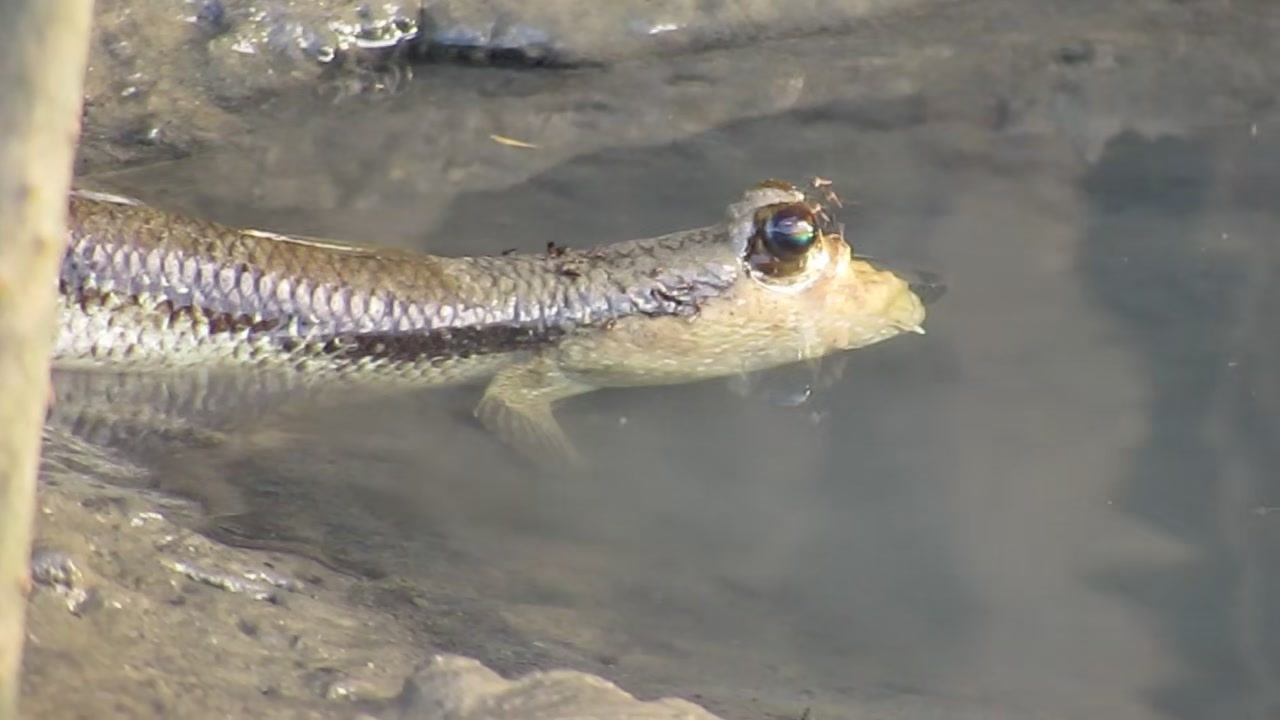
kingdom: Animalia
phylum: Chordata
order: Perciformes
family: Gobiidae
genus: Periophthalmodon
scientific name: Periophthalmodon freycineti
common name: Giant mudskipper
